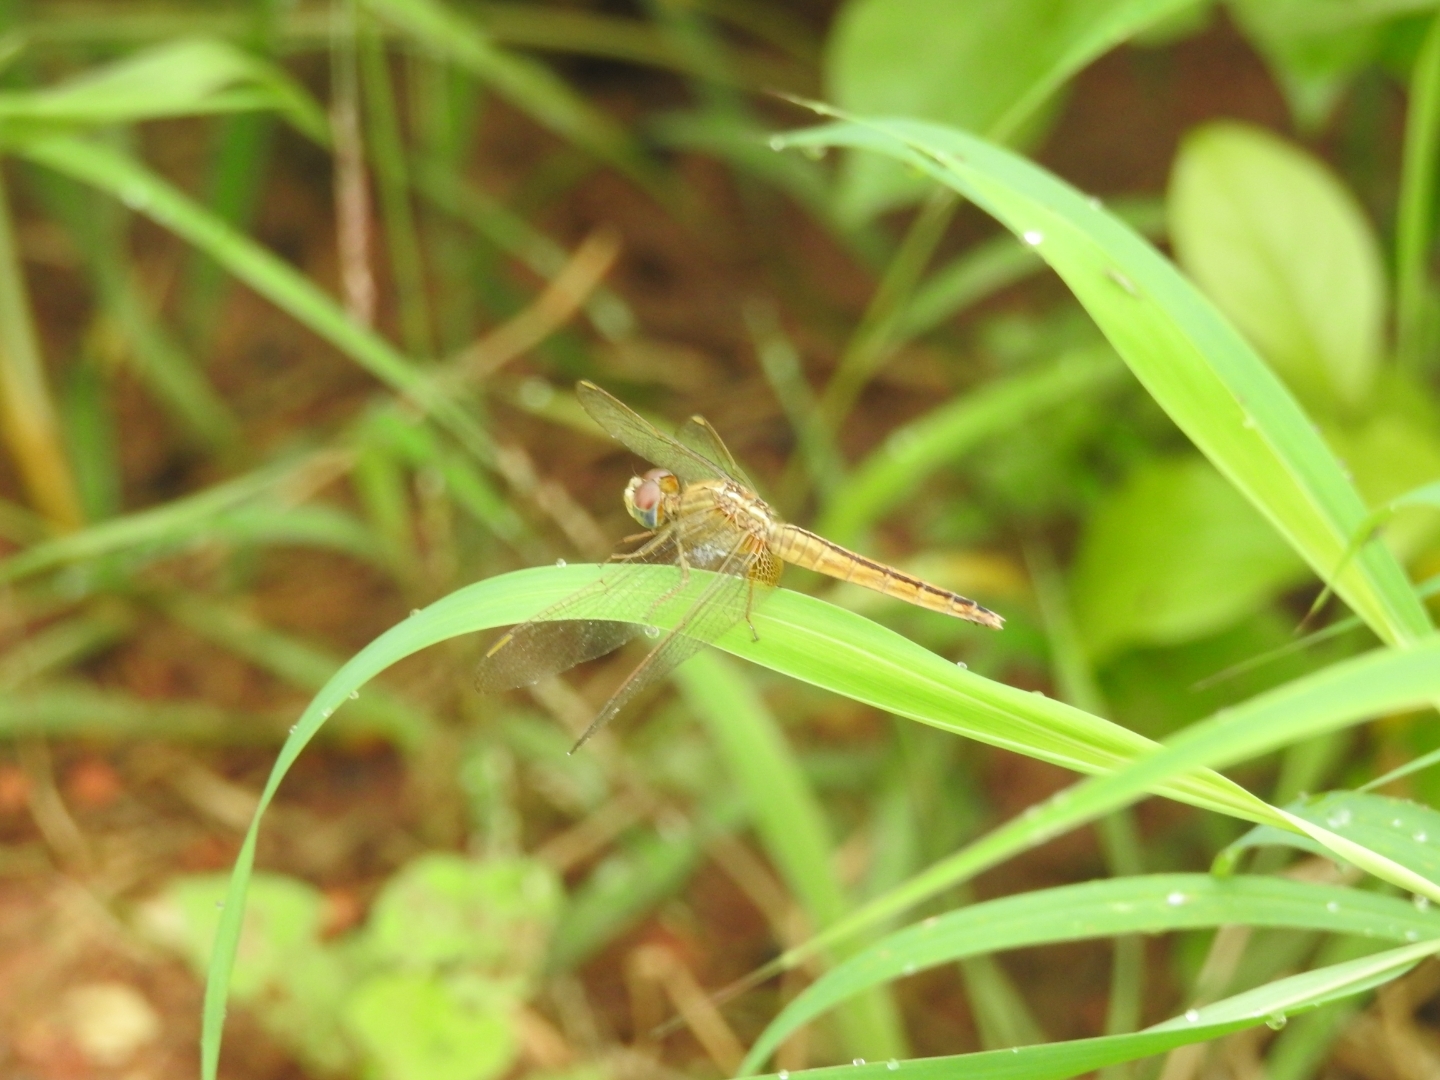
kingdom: Animalia
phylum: Arthropoda
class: Insecta
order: Odonata
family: Libellulidae
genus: Crocothemis
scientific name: Crocothemis servilia
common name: Scarlet skimmer
